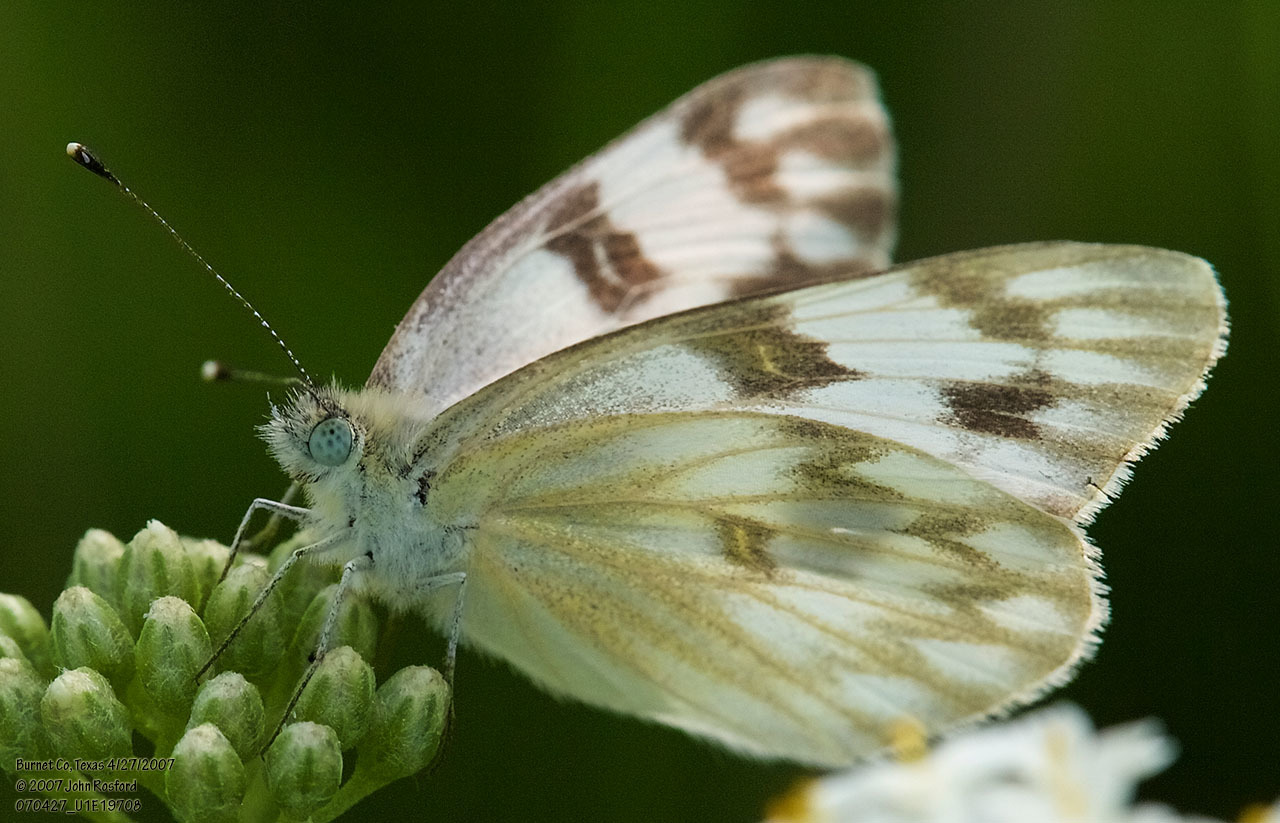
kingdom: Animalia
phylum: Arthropoda
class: Insecta
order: Lepidoptera
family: Pieridae
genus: Pontia
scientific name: Pontia protodice
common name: Checkered white
